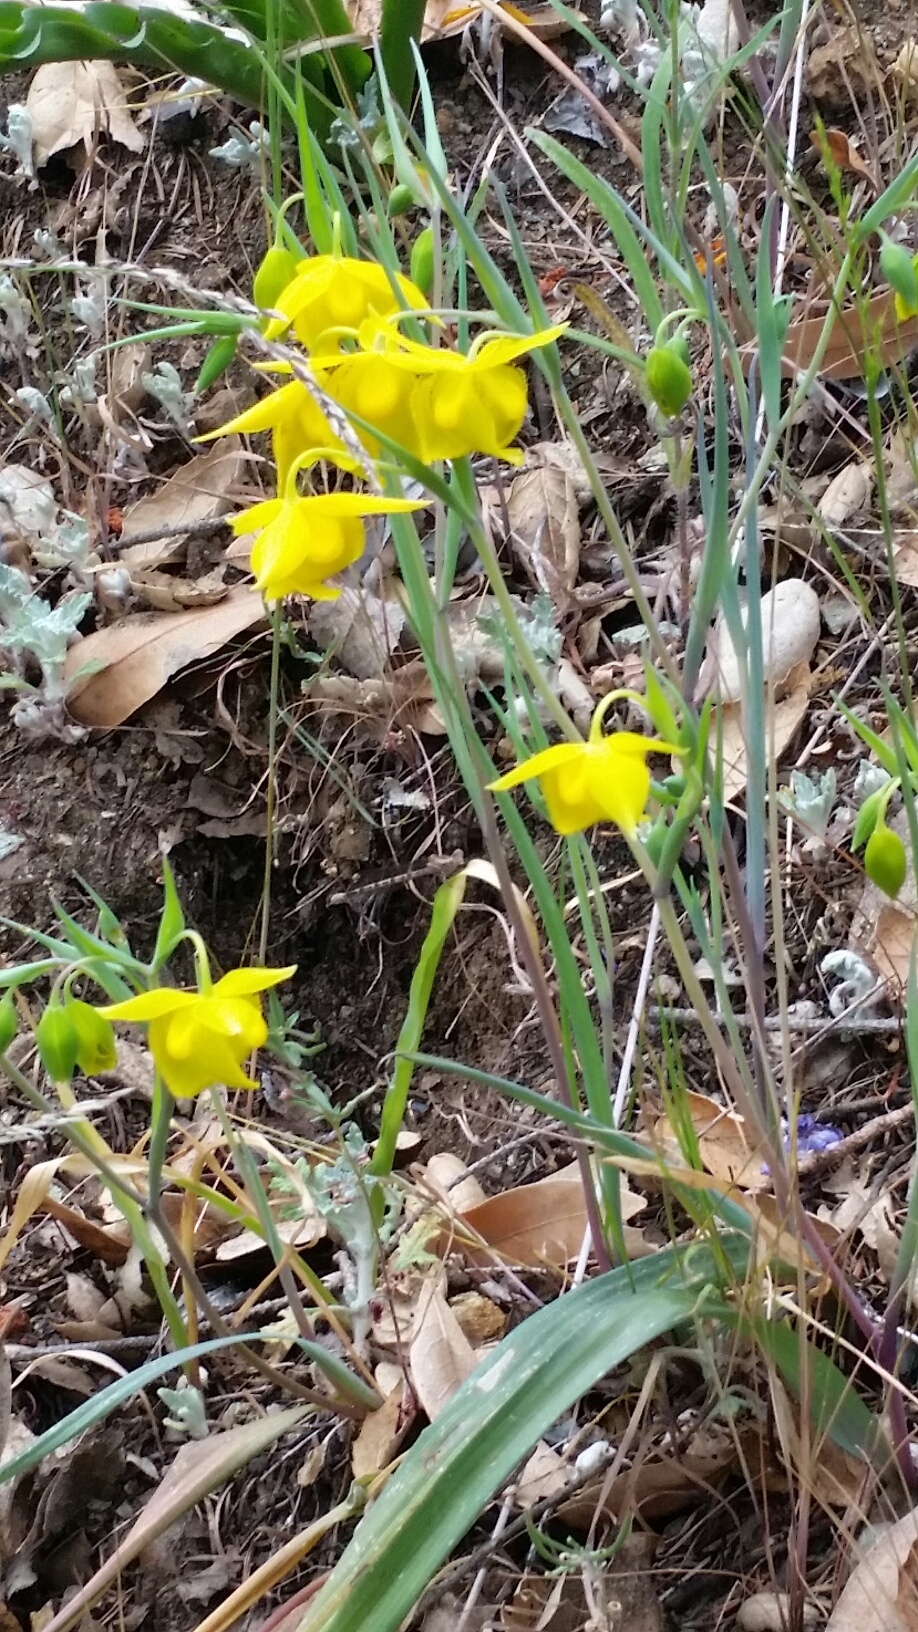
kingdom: Plantae
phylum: Tracheophyta
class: Liliopsida
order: Liliales
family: Liliaceae
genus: Calochortus
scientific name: Calochortus amabilis
